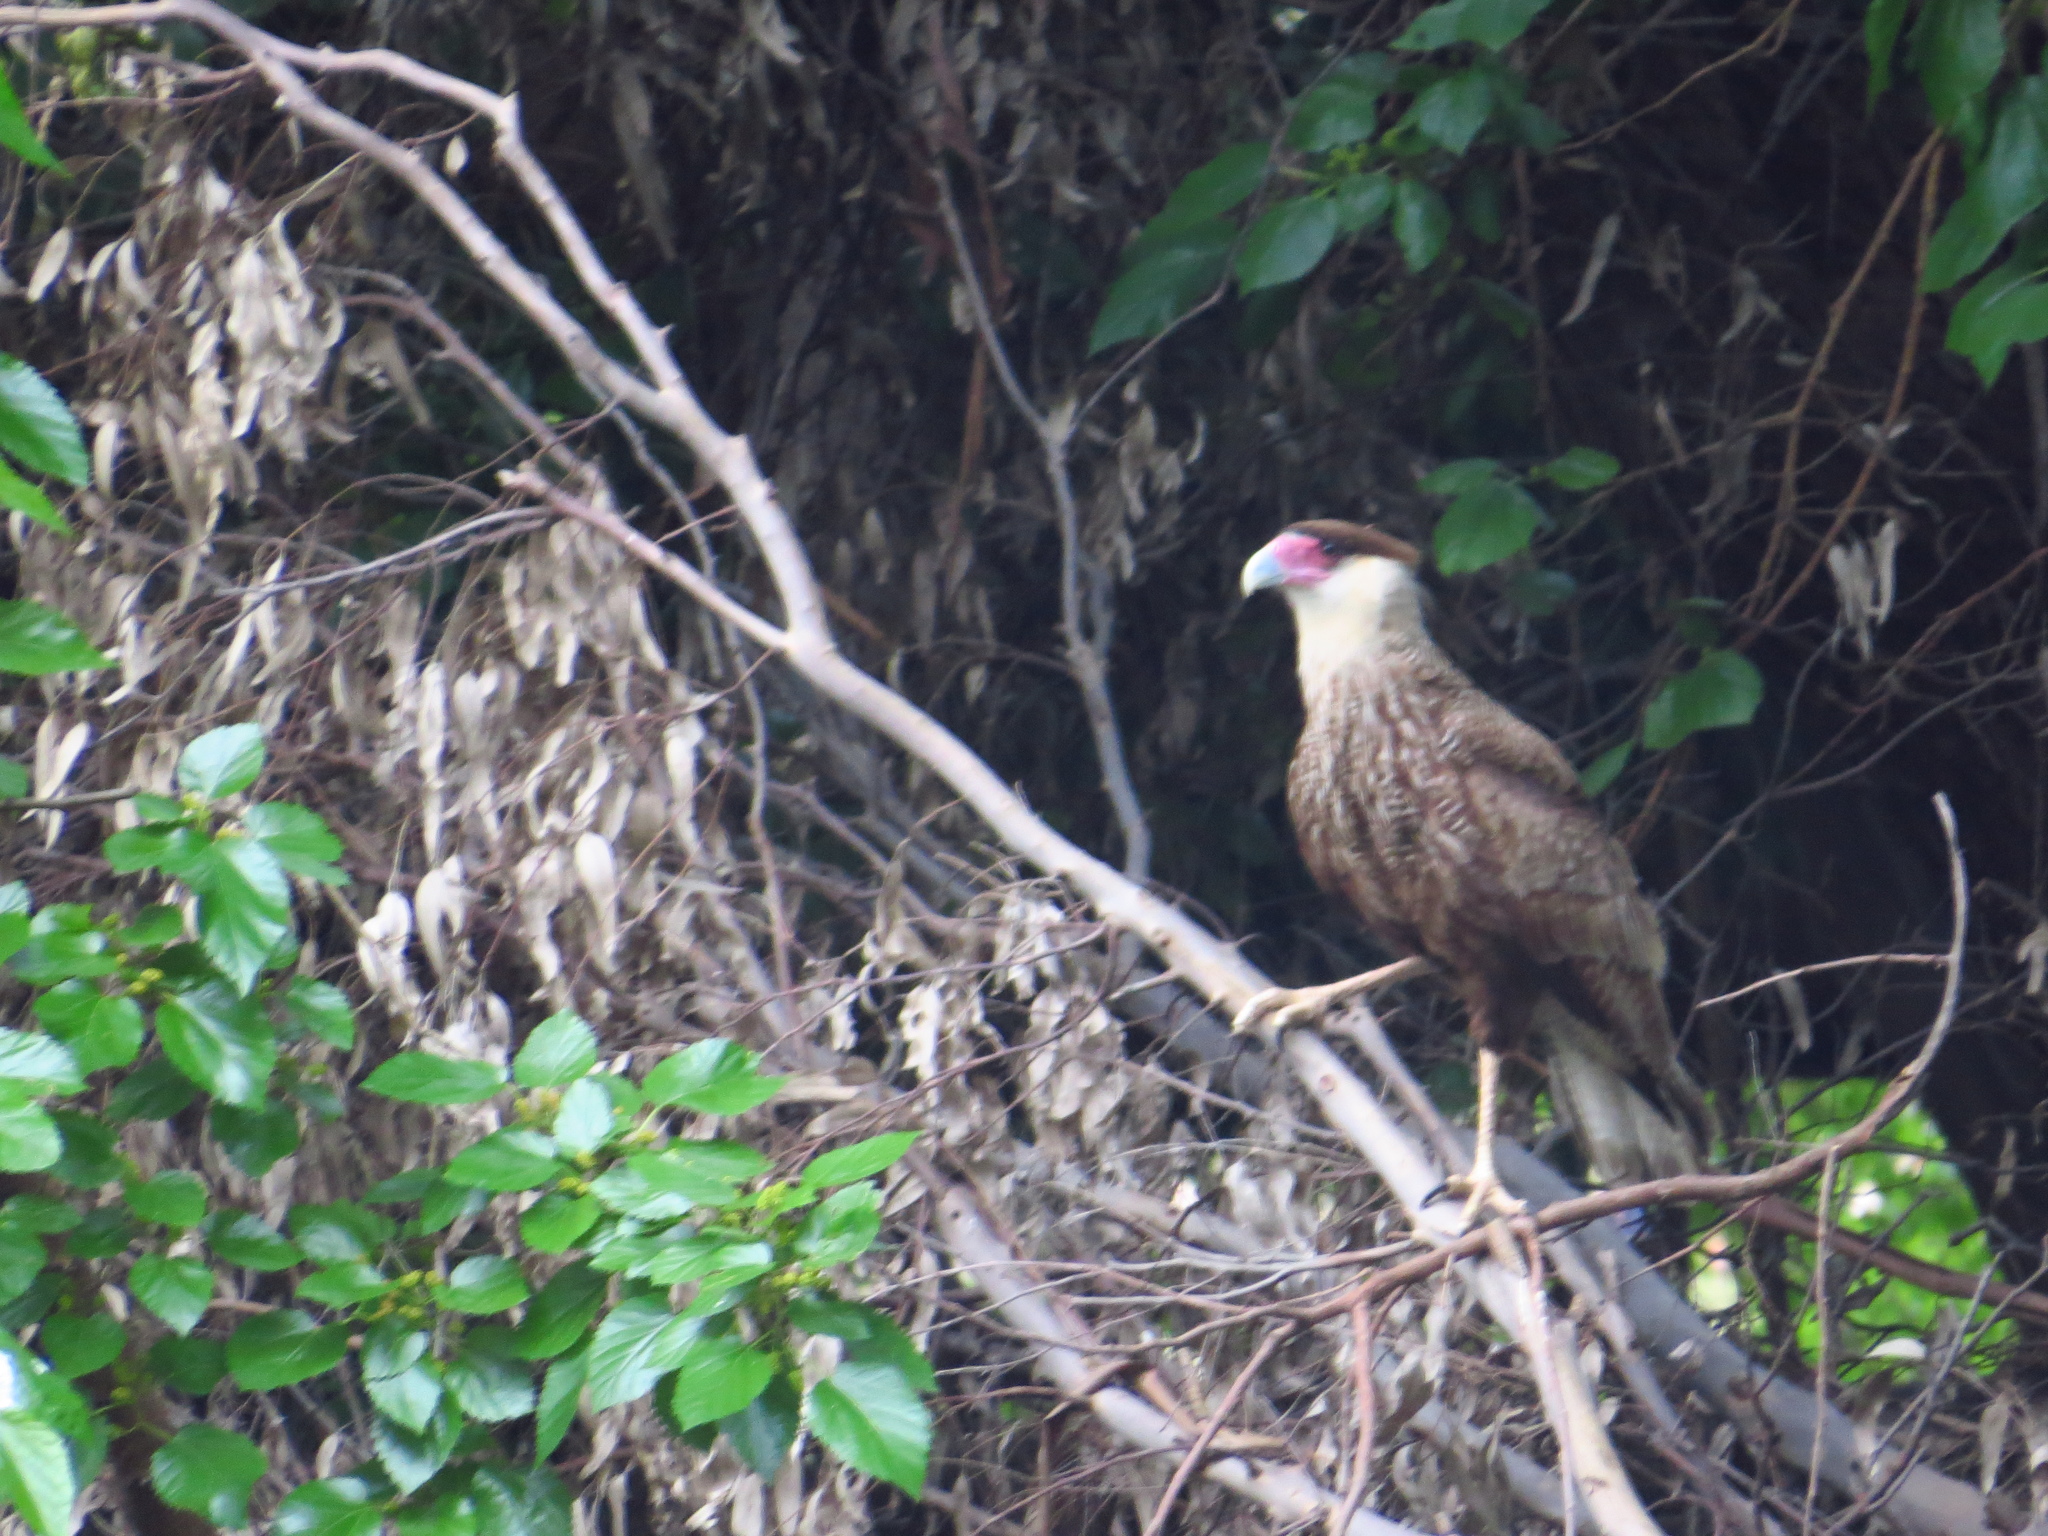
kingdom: Animalia
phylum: Chordata
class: Aves
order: Falconiformes
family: Falconidae
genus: Caracara
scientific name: Caracara plancus
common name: Southern caracara
